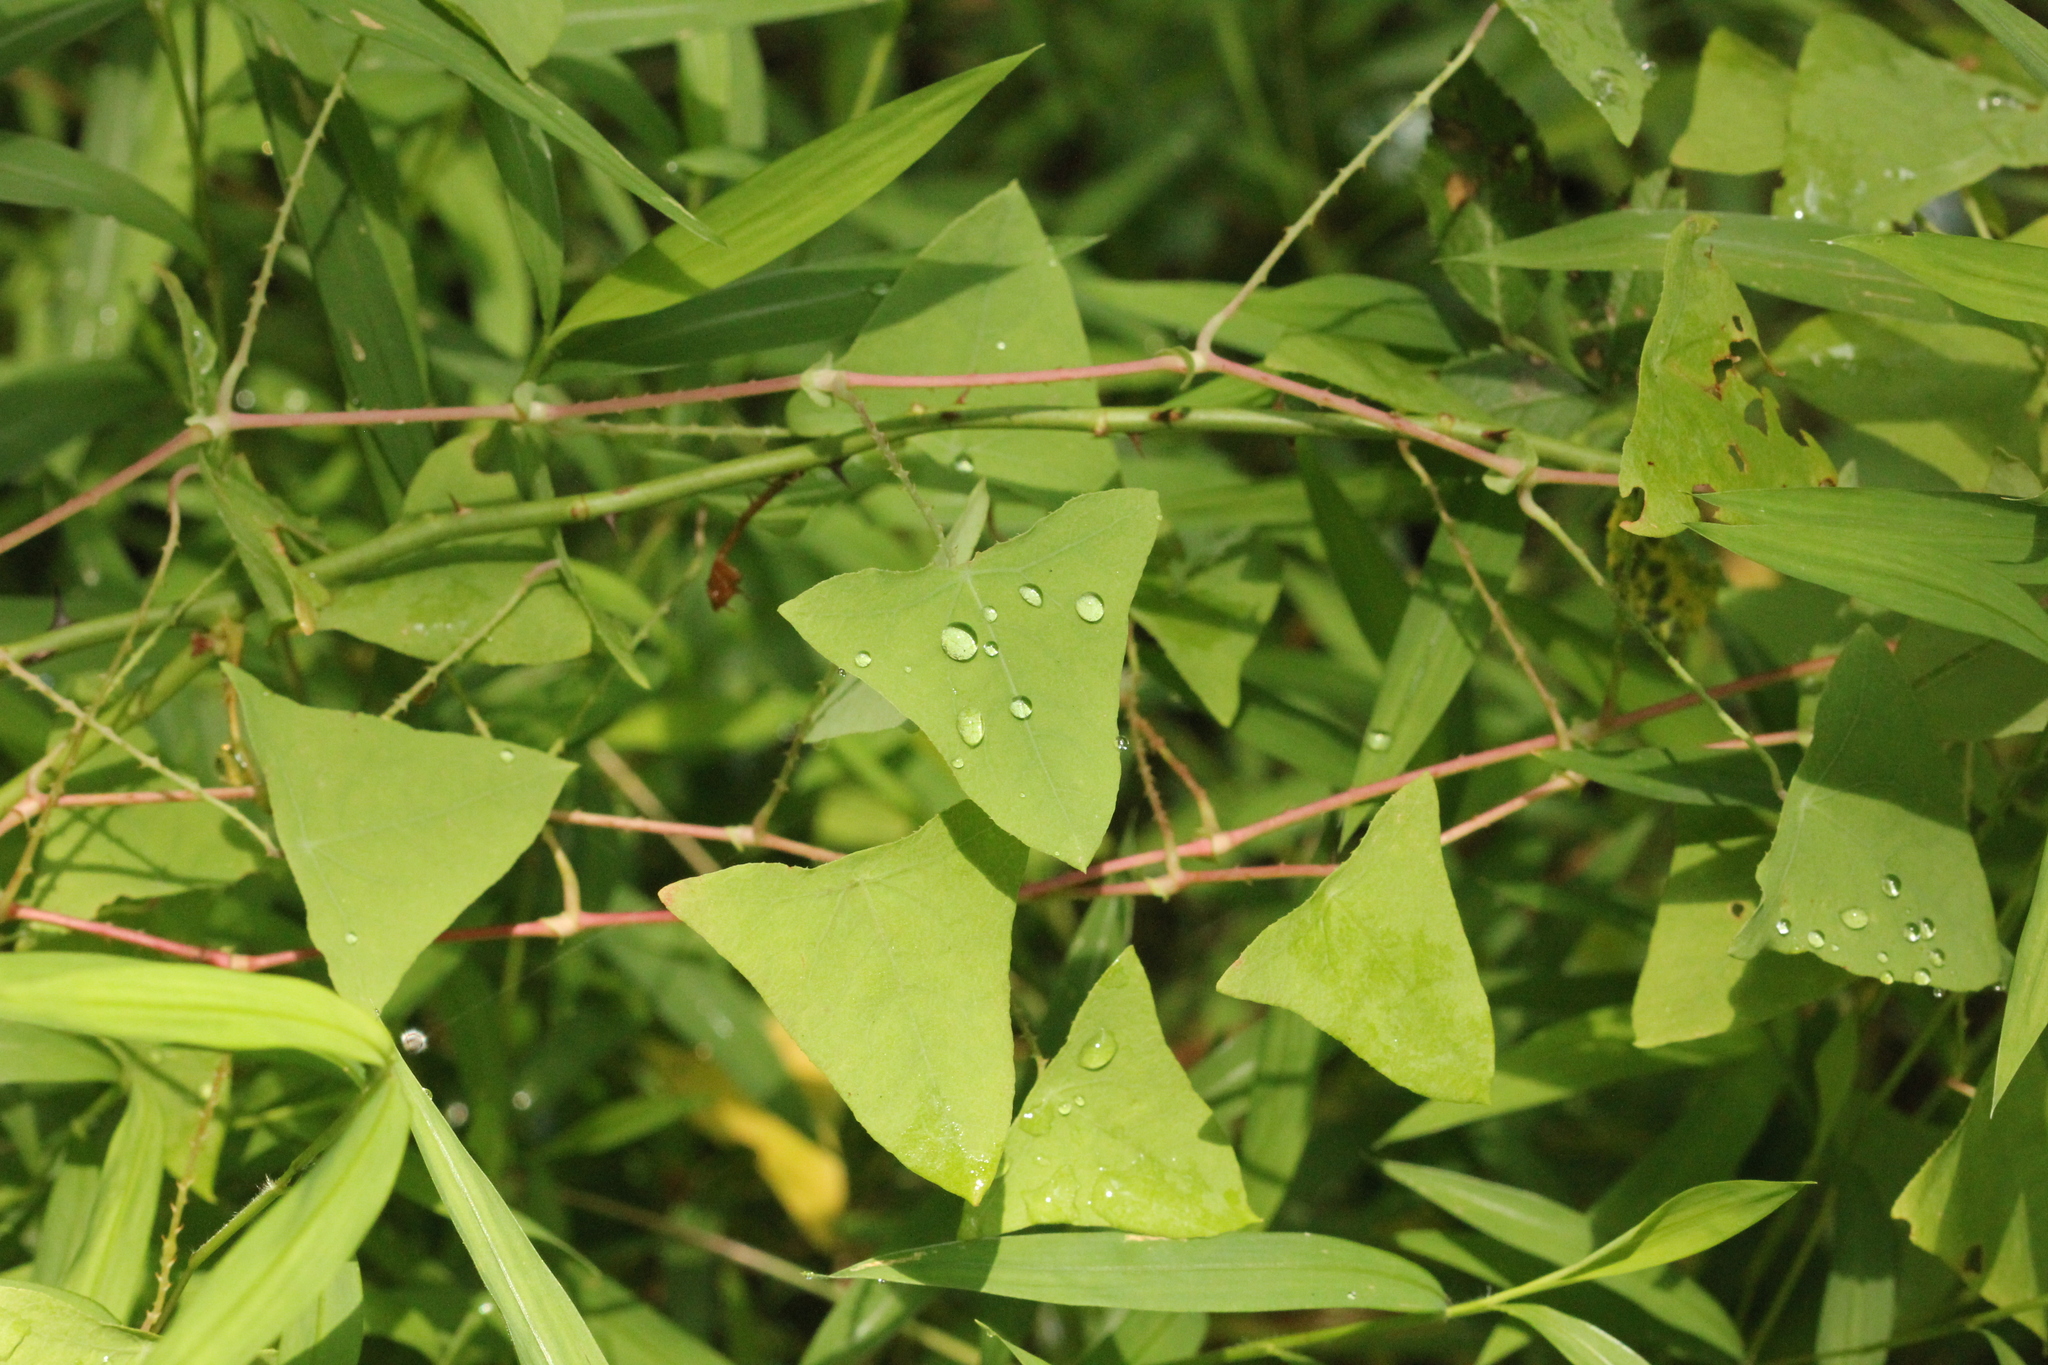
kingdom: Plantae
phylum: Tracheophyta
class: Magnoliopsida
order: Caryophyllales
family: Polygonaceae
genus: Persicaria
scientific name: Persicaria perfoliata
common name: Asiatic tearthumb
